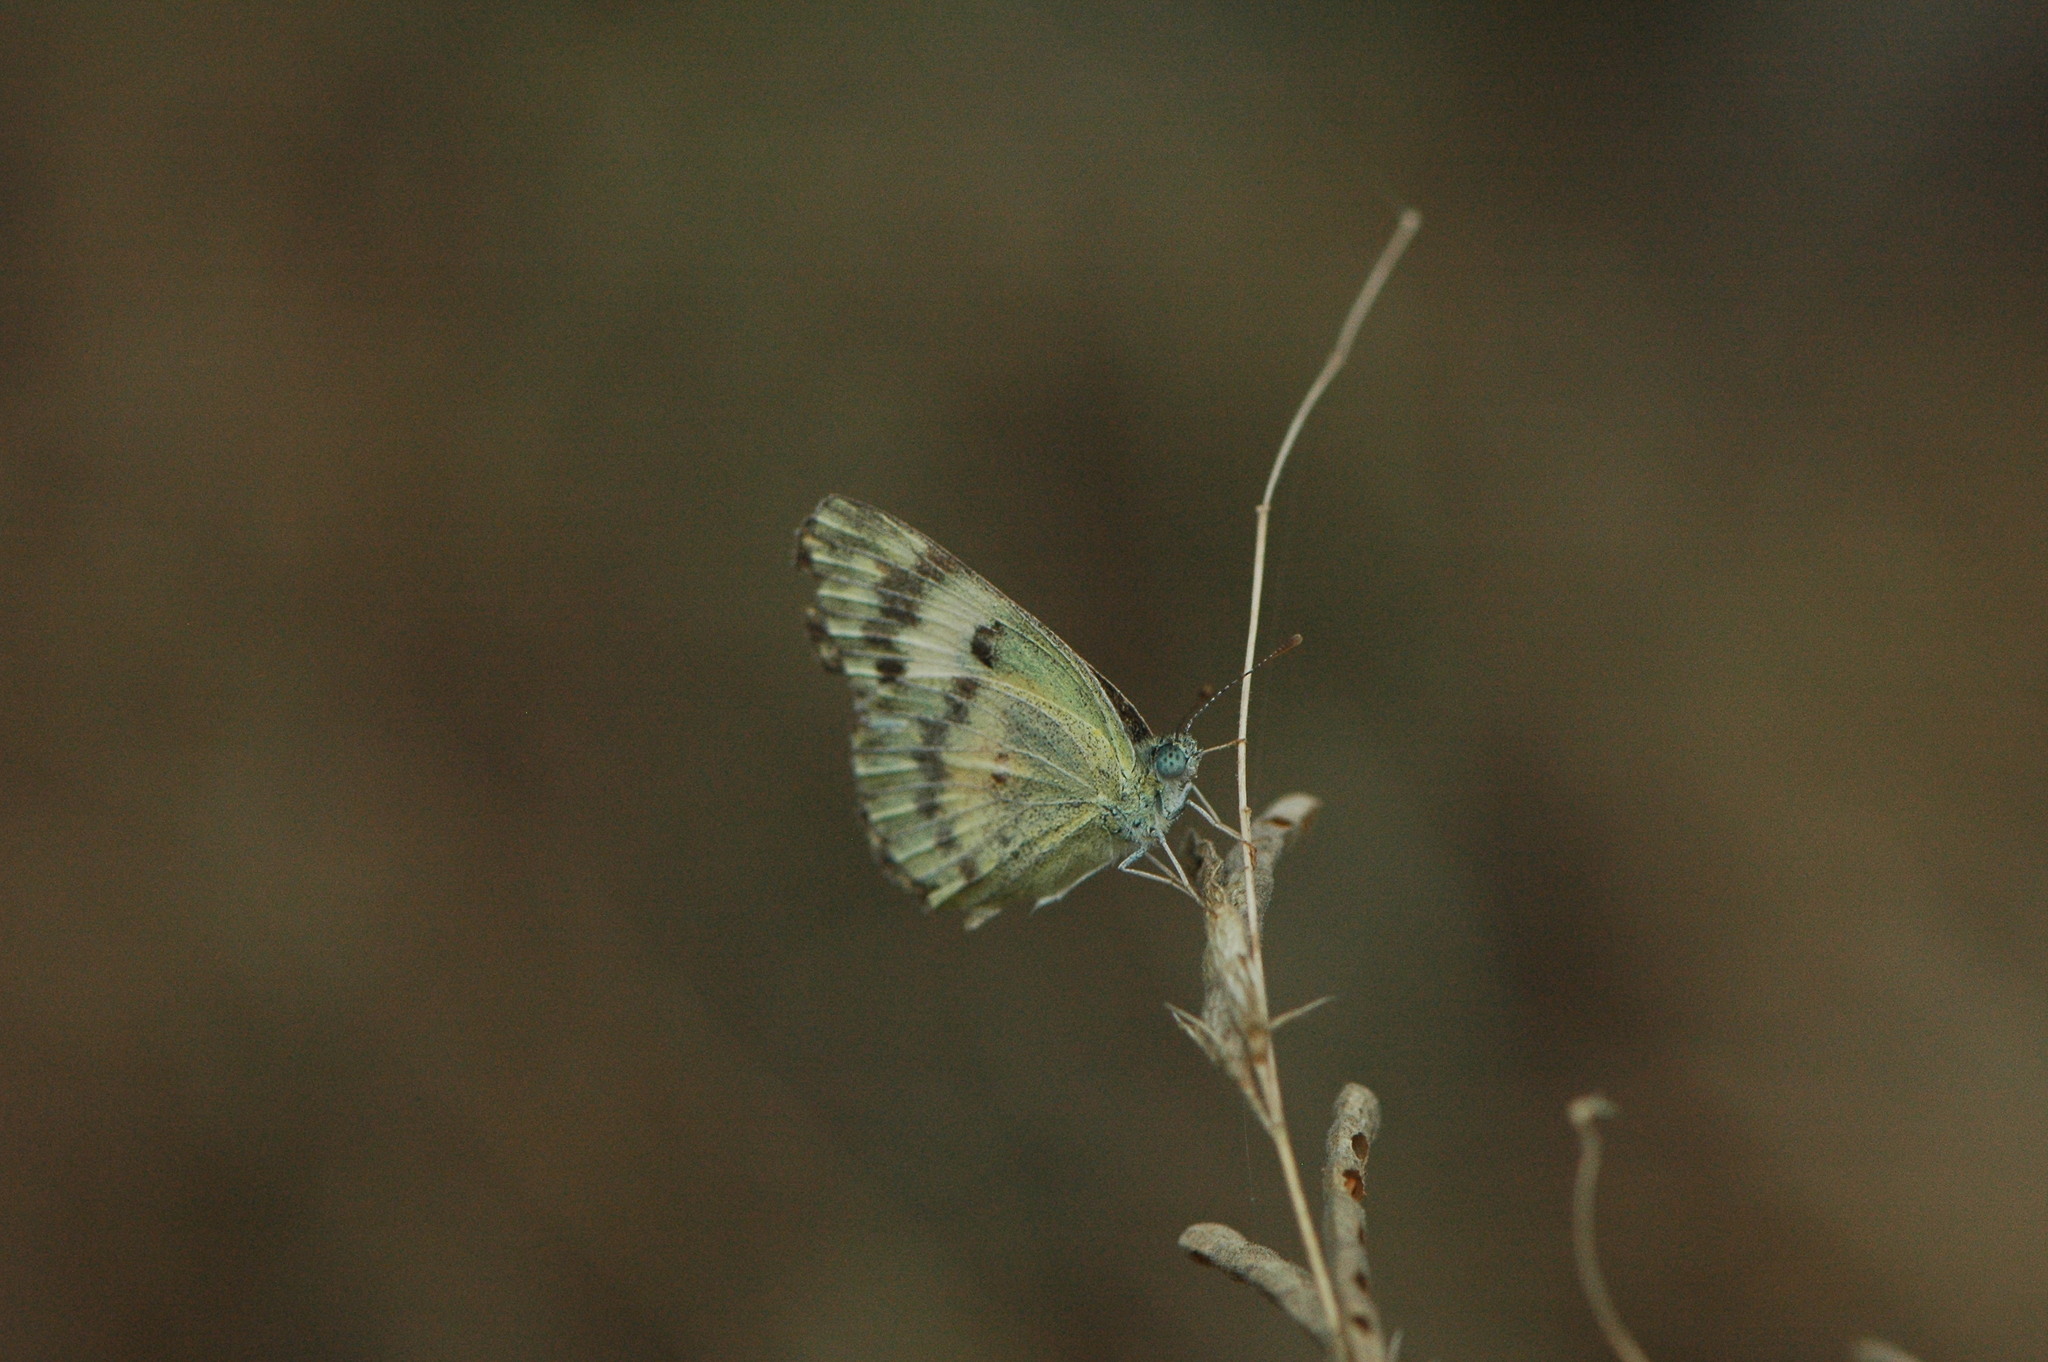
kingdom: Animalia
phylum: Arthropoda
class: Insecta
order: Lepidoptera
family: Pieridae
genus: Colotis
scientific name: Colotis amata
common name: Small salmon arab
